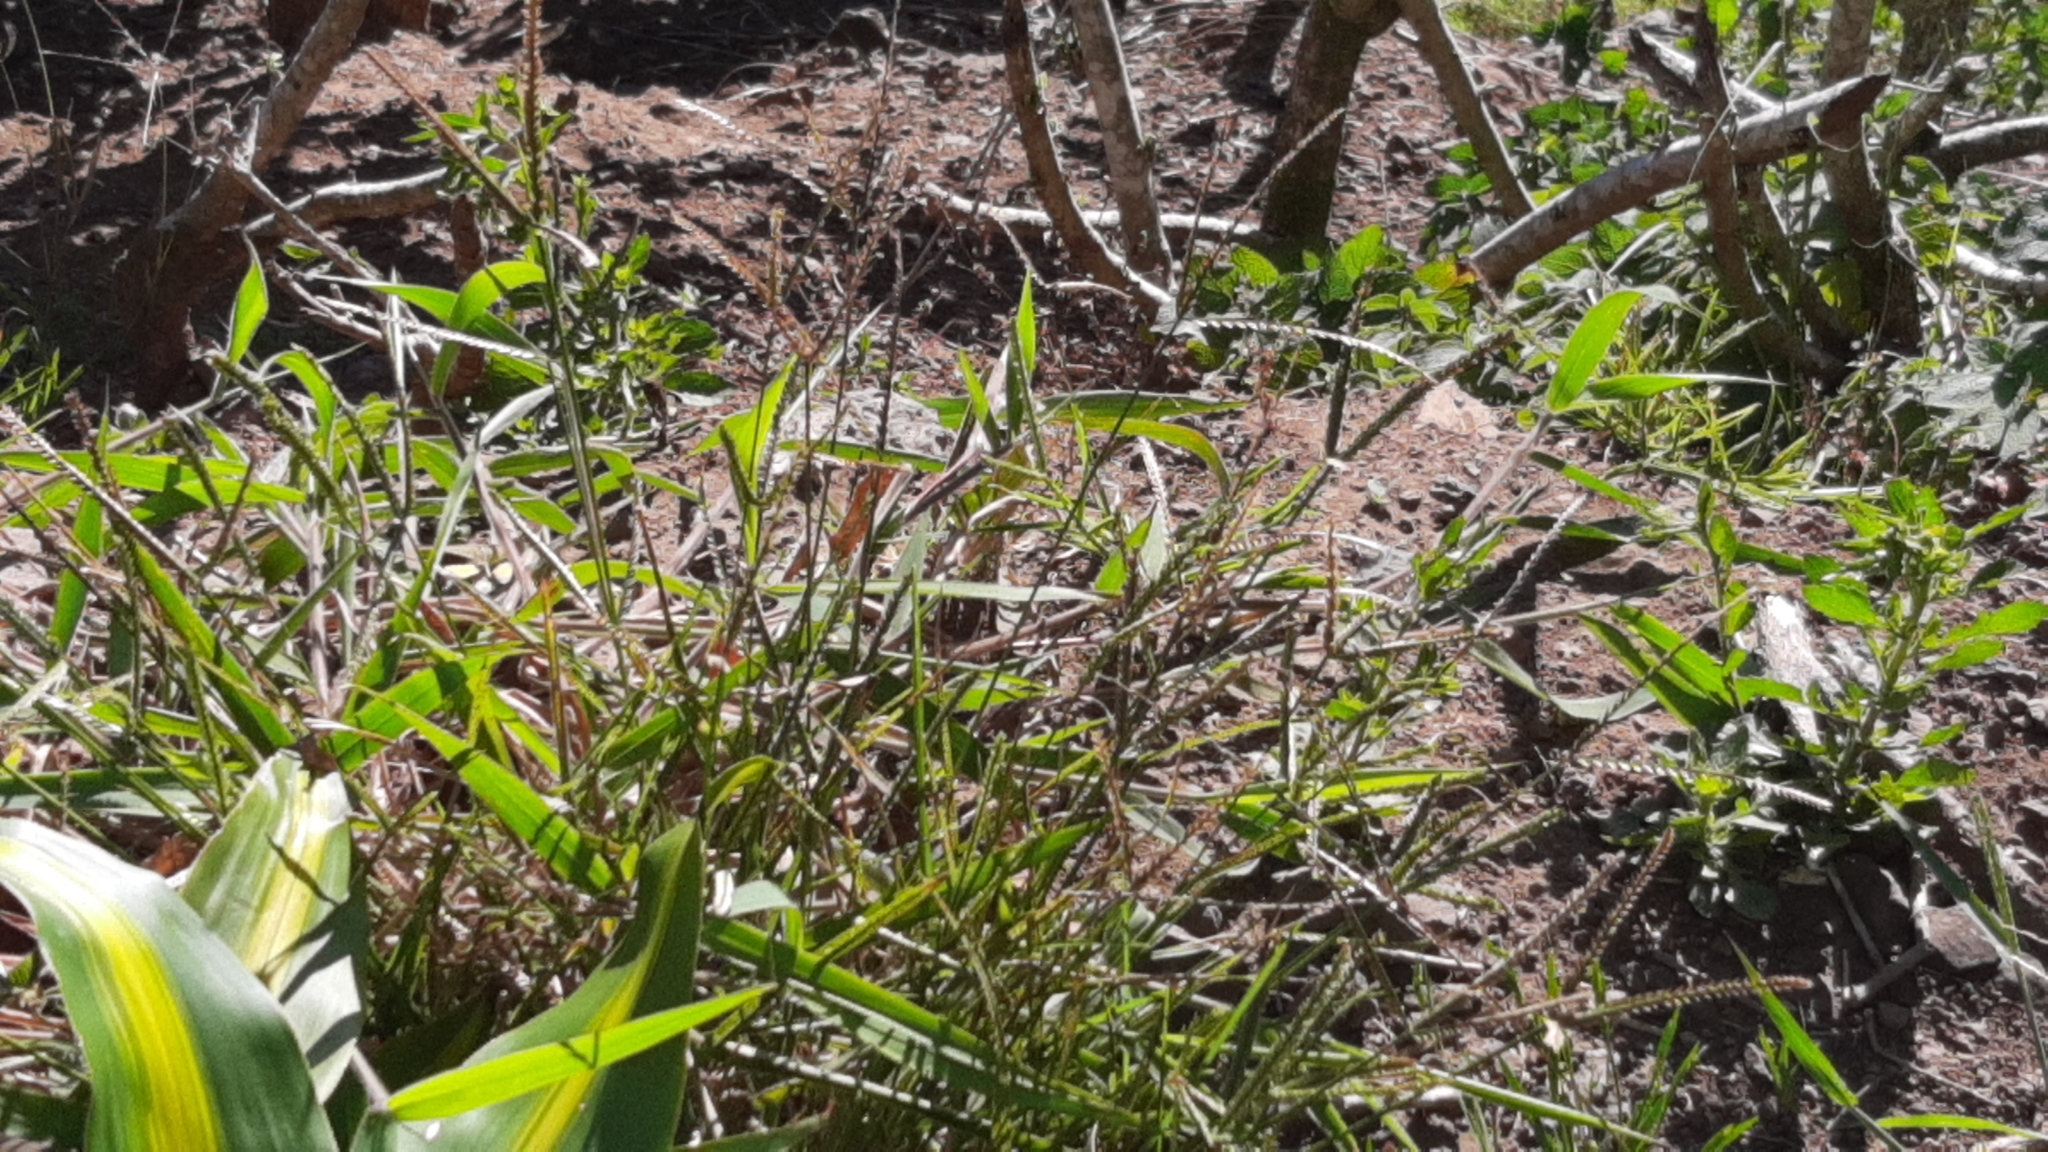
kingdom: Plantae
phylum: Tracheophyta
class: Liliopsida
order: Poales
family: Poaceae
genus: Eleusine
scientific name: Eleusine indica
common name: Yard-grass
